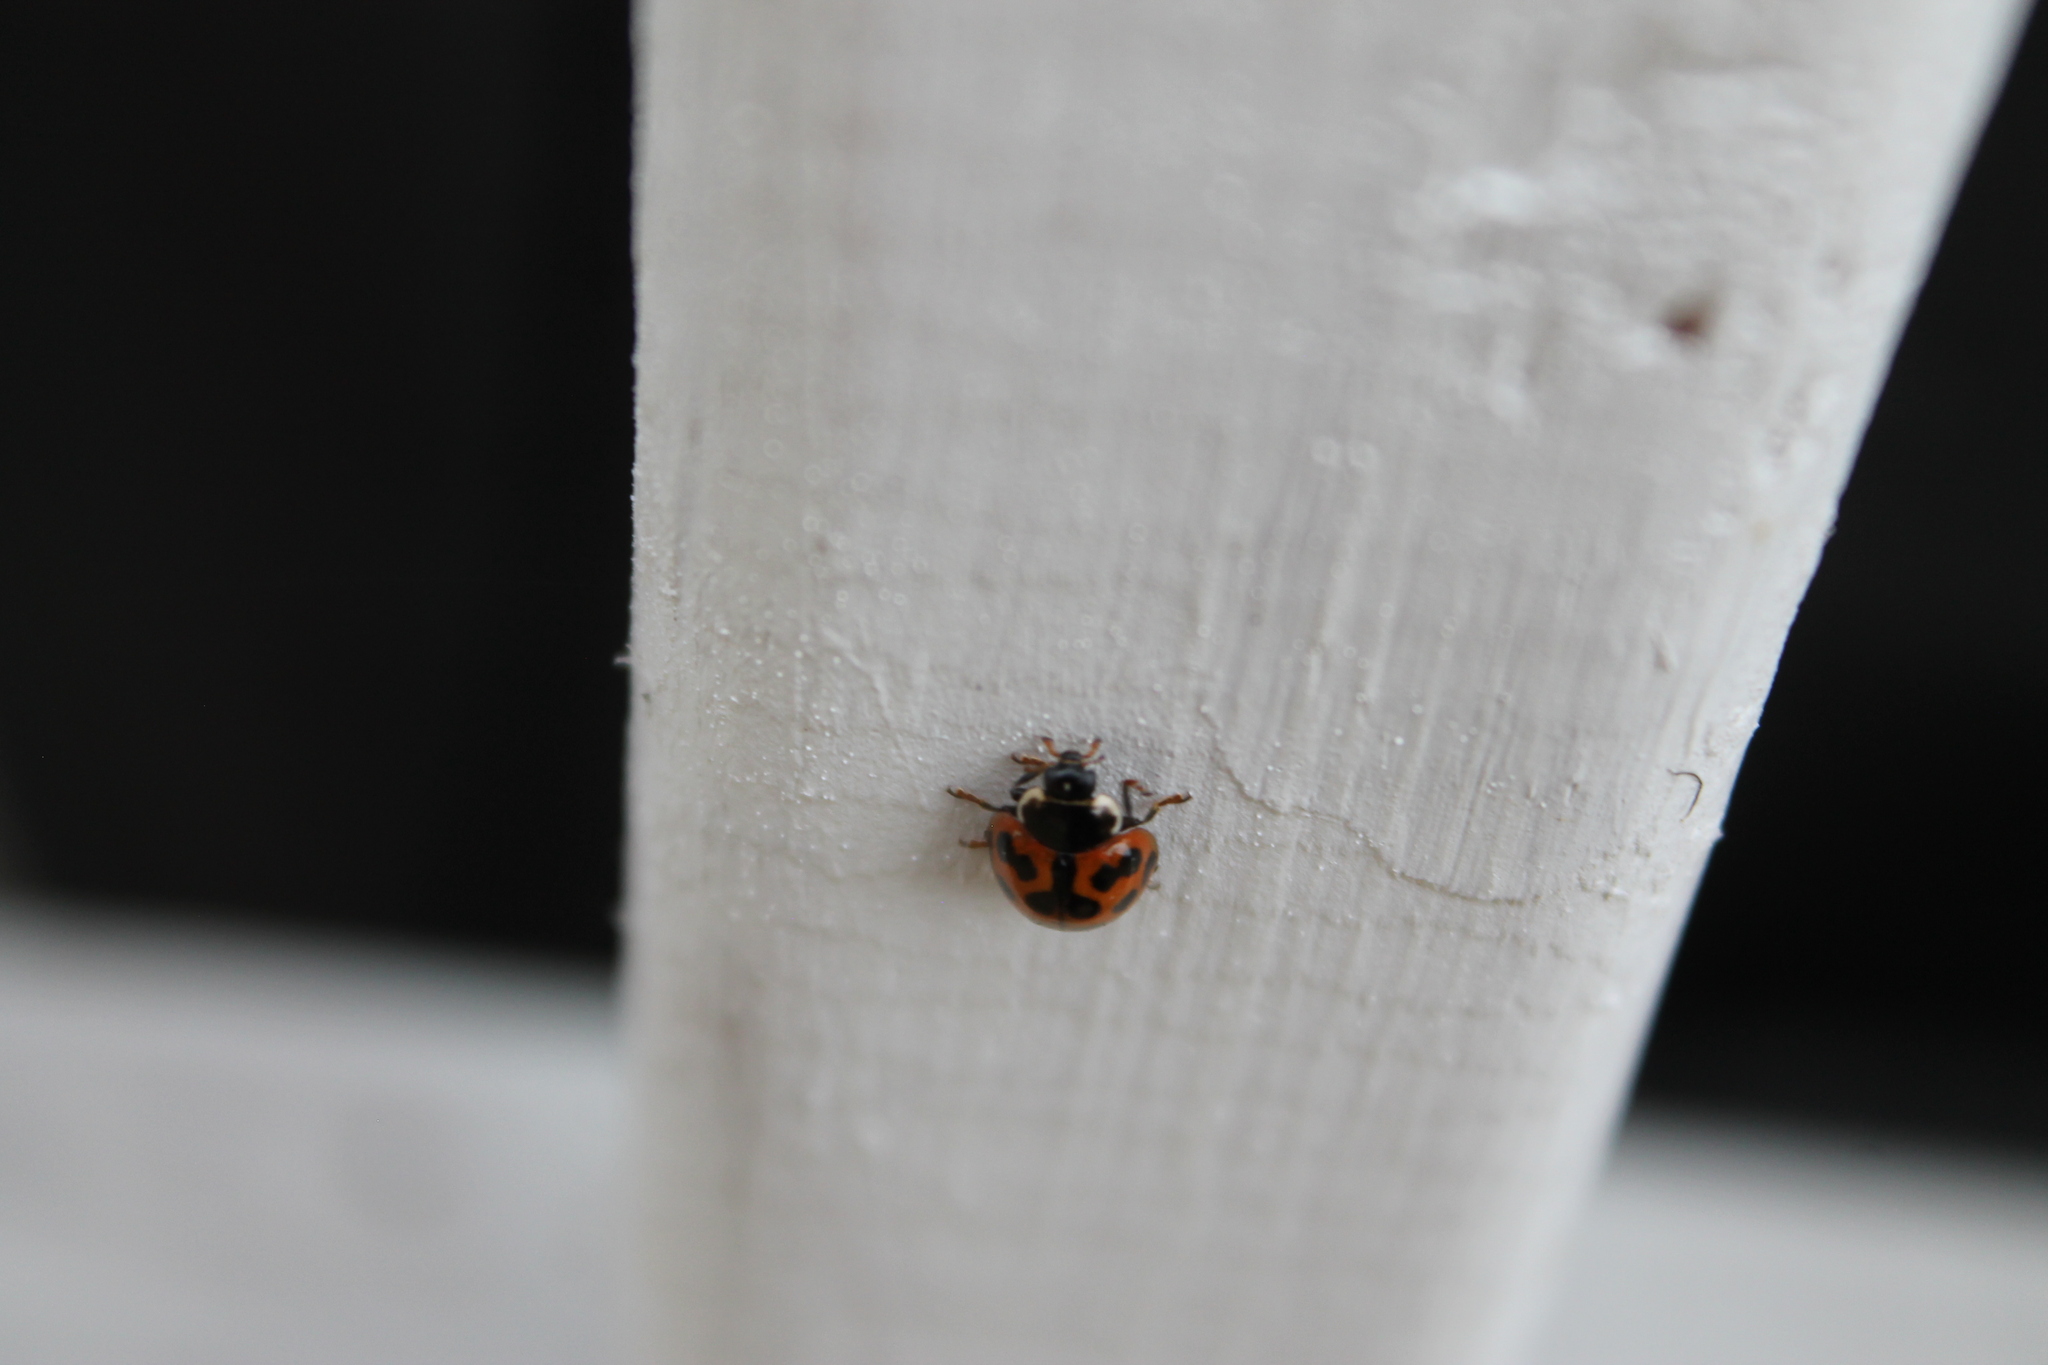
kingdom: Animalia
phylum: Arthropoda
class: Insecta
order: Coleoptera
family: Coccinellidae
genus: Harmonia
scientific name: Harmonia axyridis
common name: Harlequin ladybird
